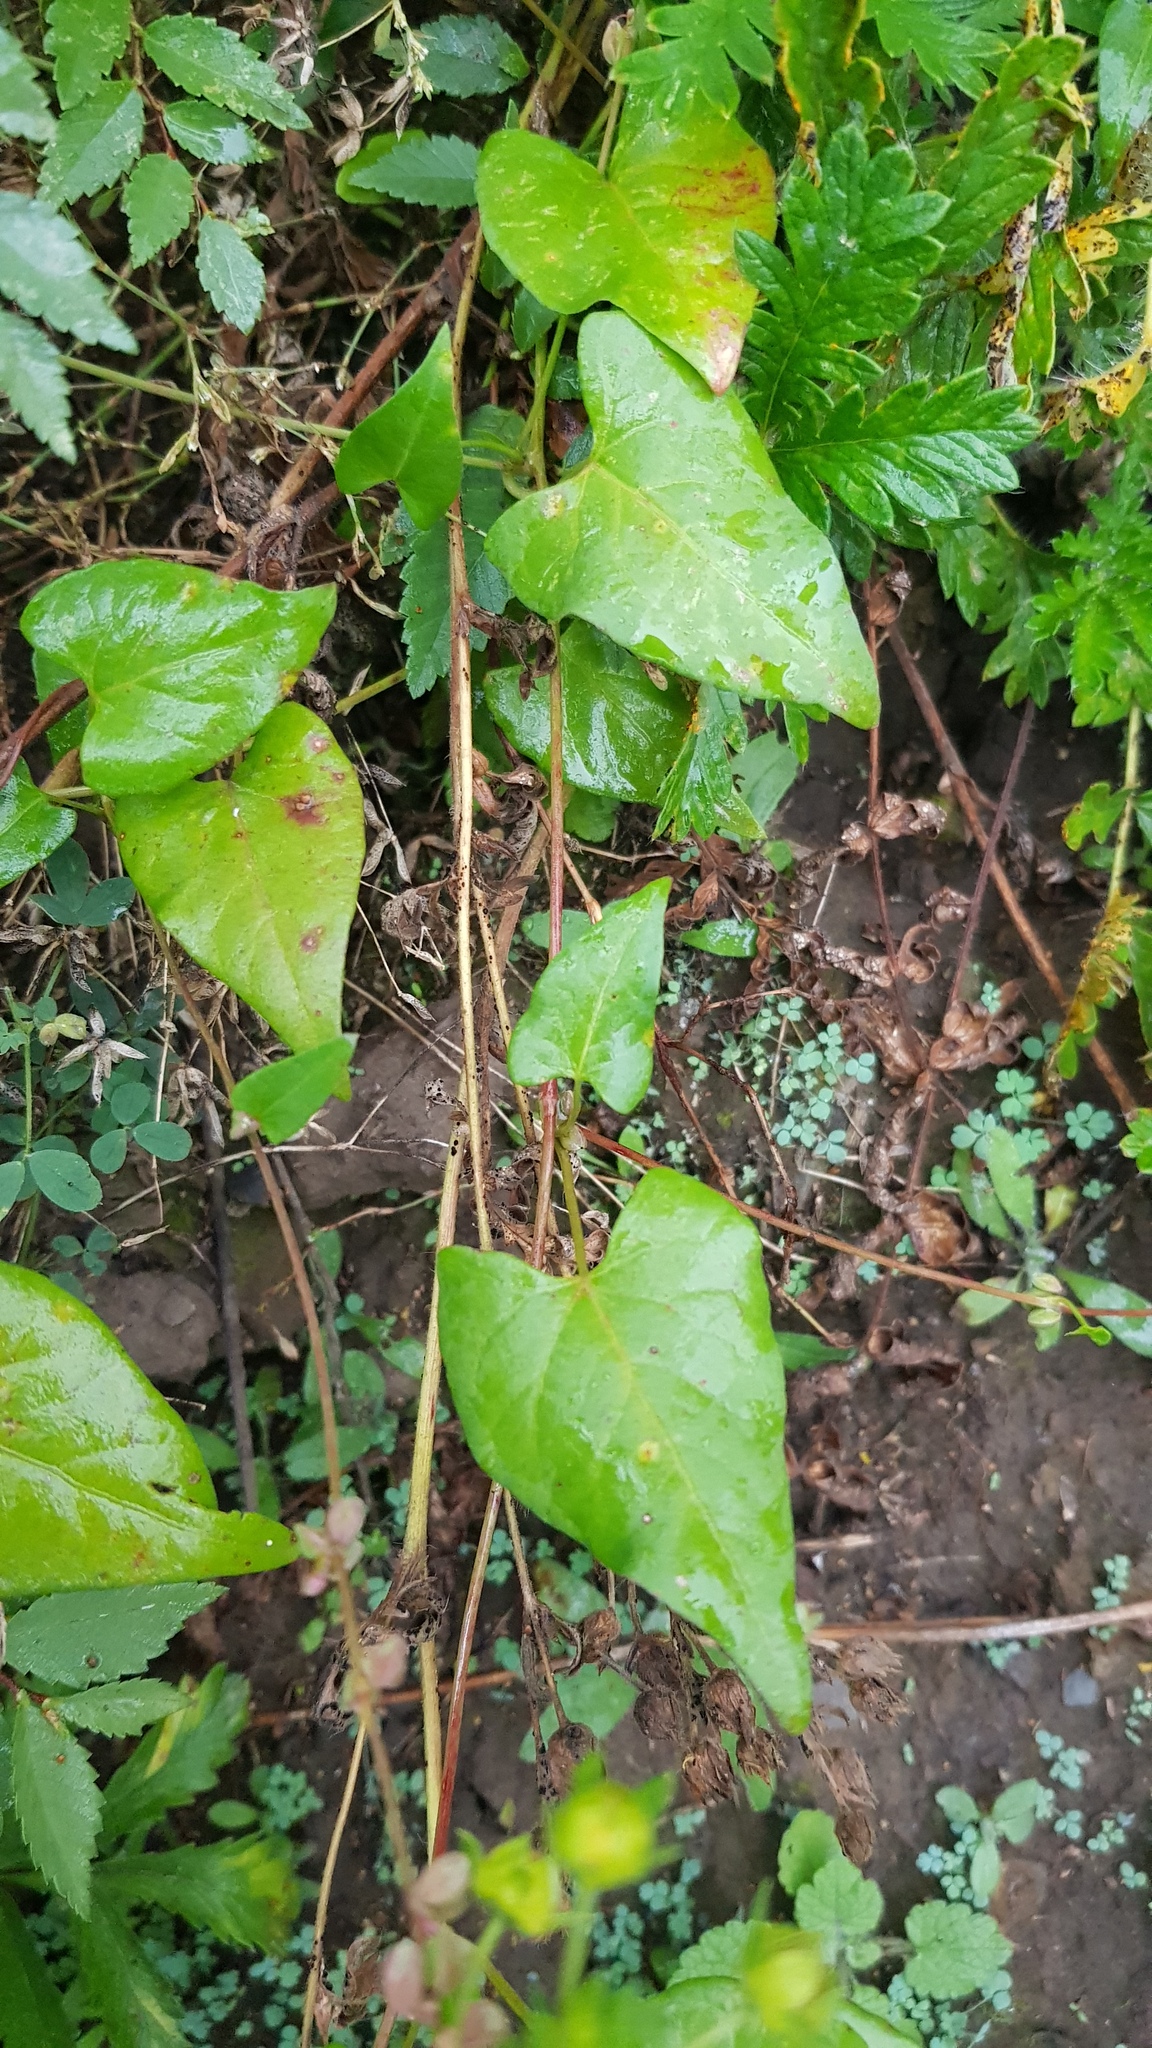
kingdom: Plantae
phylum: Tracheophyta
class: Magnoliopsida
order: Caryophyllales
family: Polygonaceae
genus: Fallopia
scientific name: Fallopia convolvulus
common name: Black bindweed
